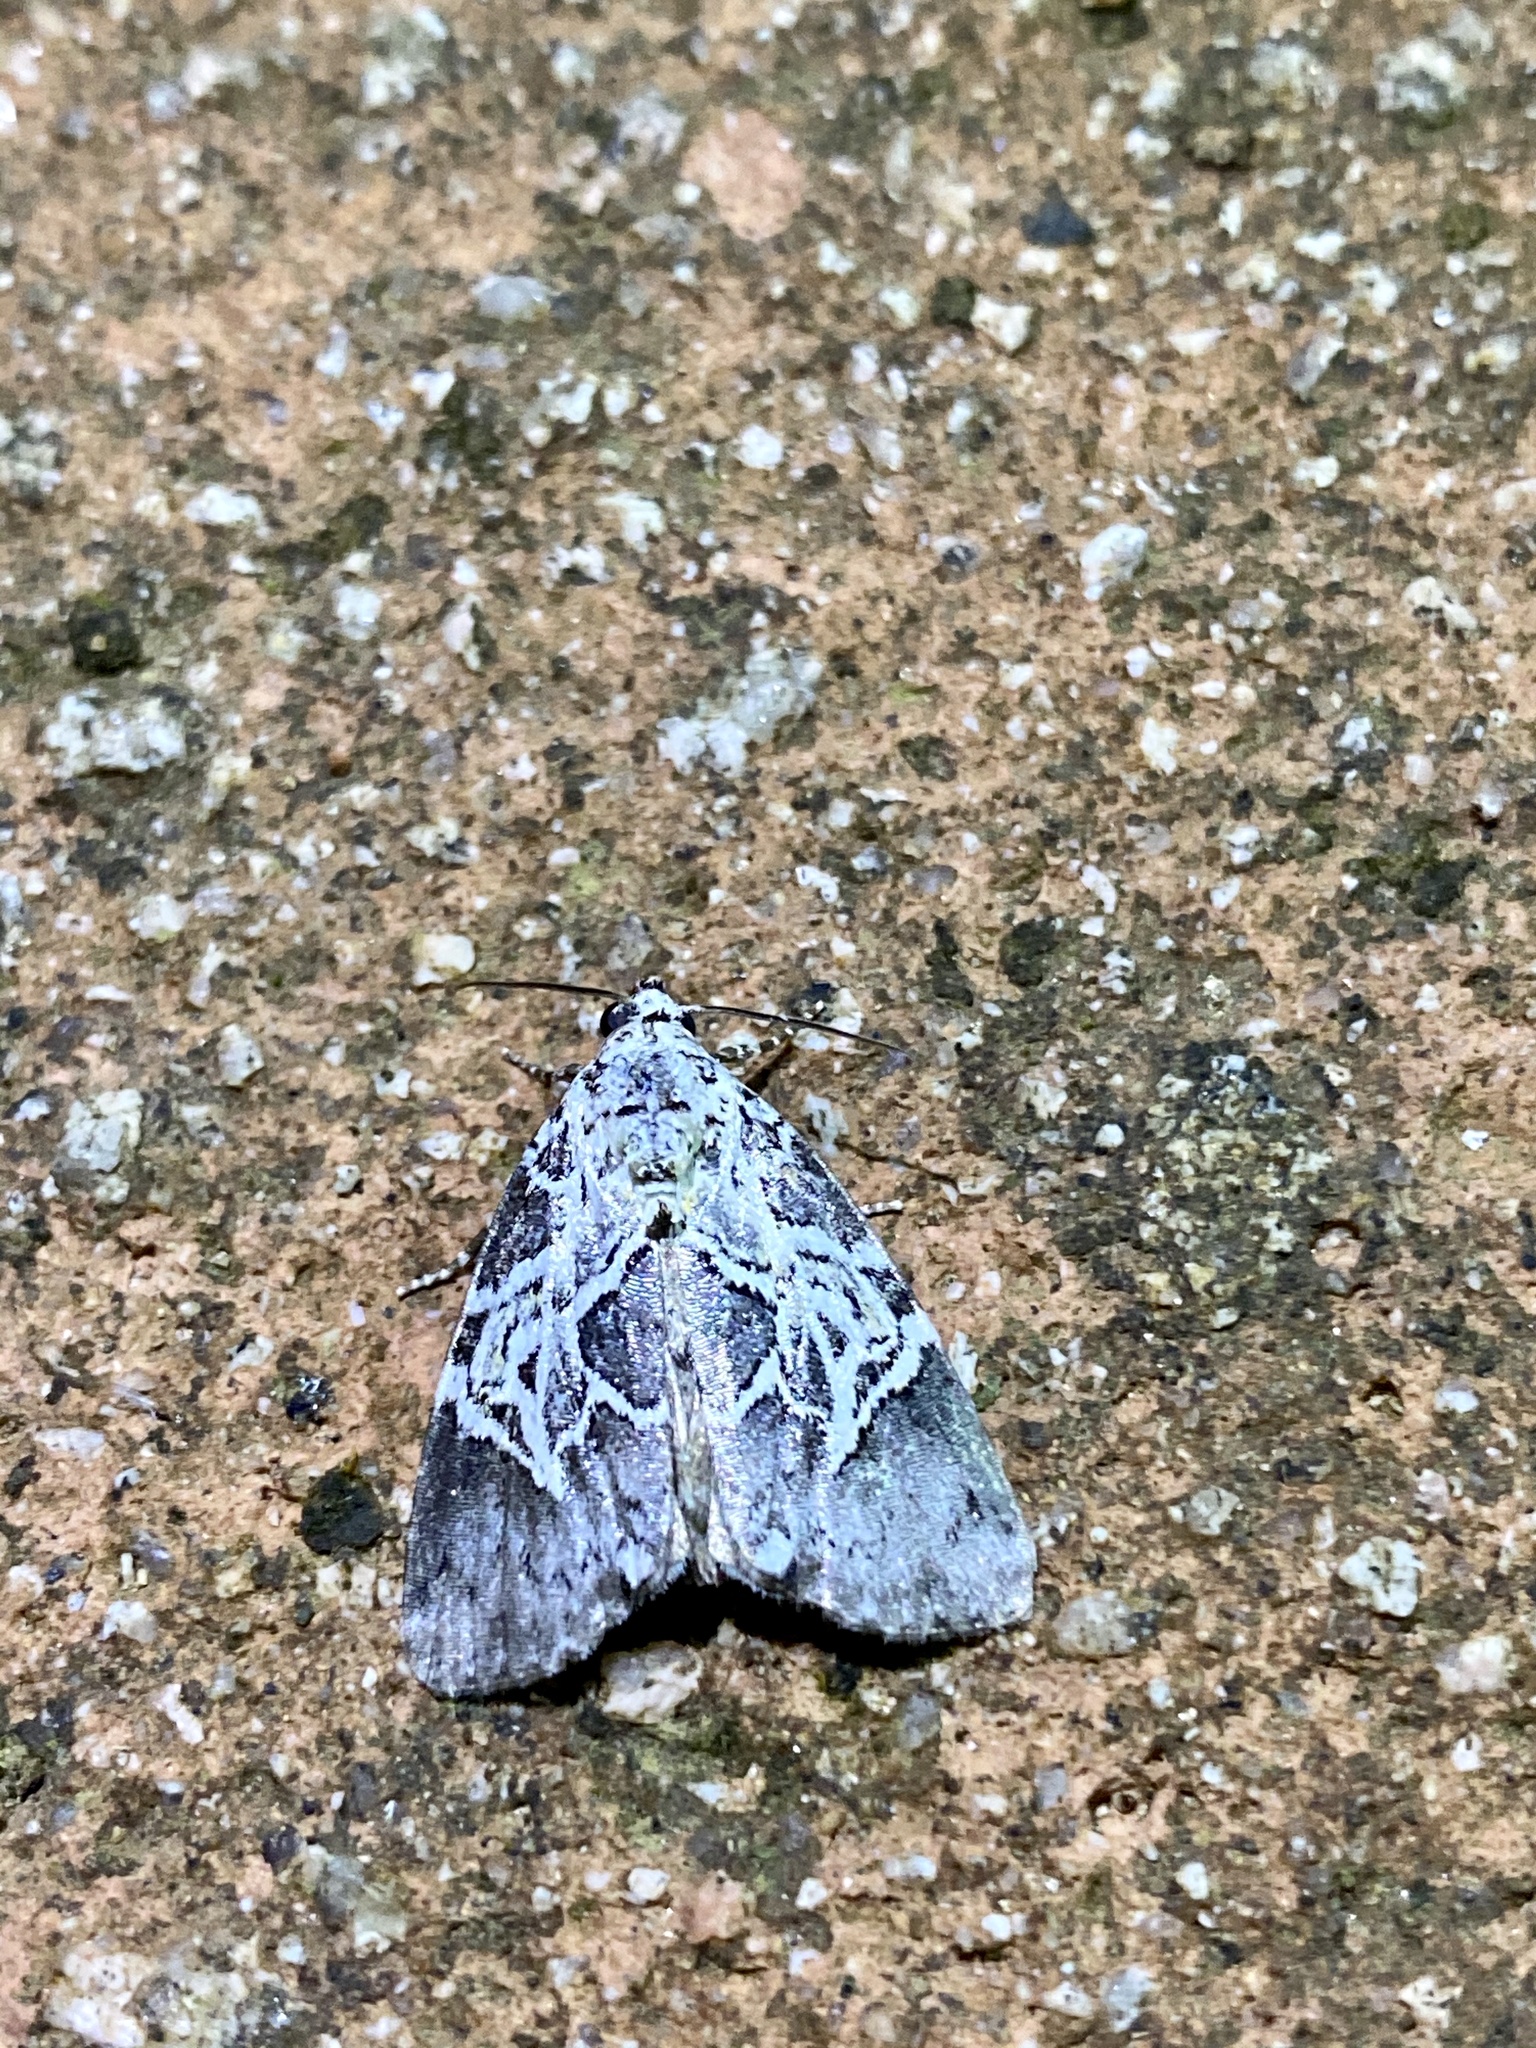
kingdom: Animalia
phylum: Arthropoda
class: Insecta
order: Lepidoptera
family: Noctuidae
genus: Lophonycta
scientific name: Lophonycta confusa
